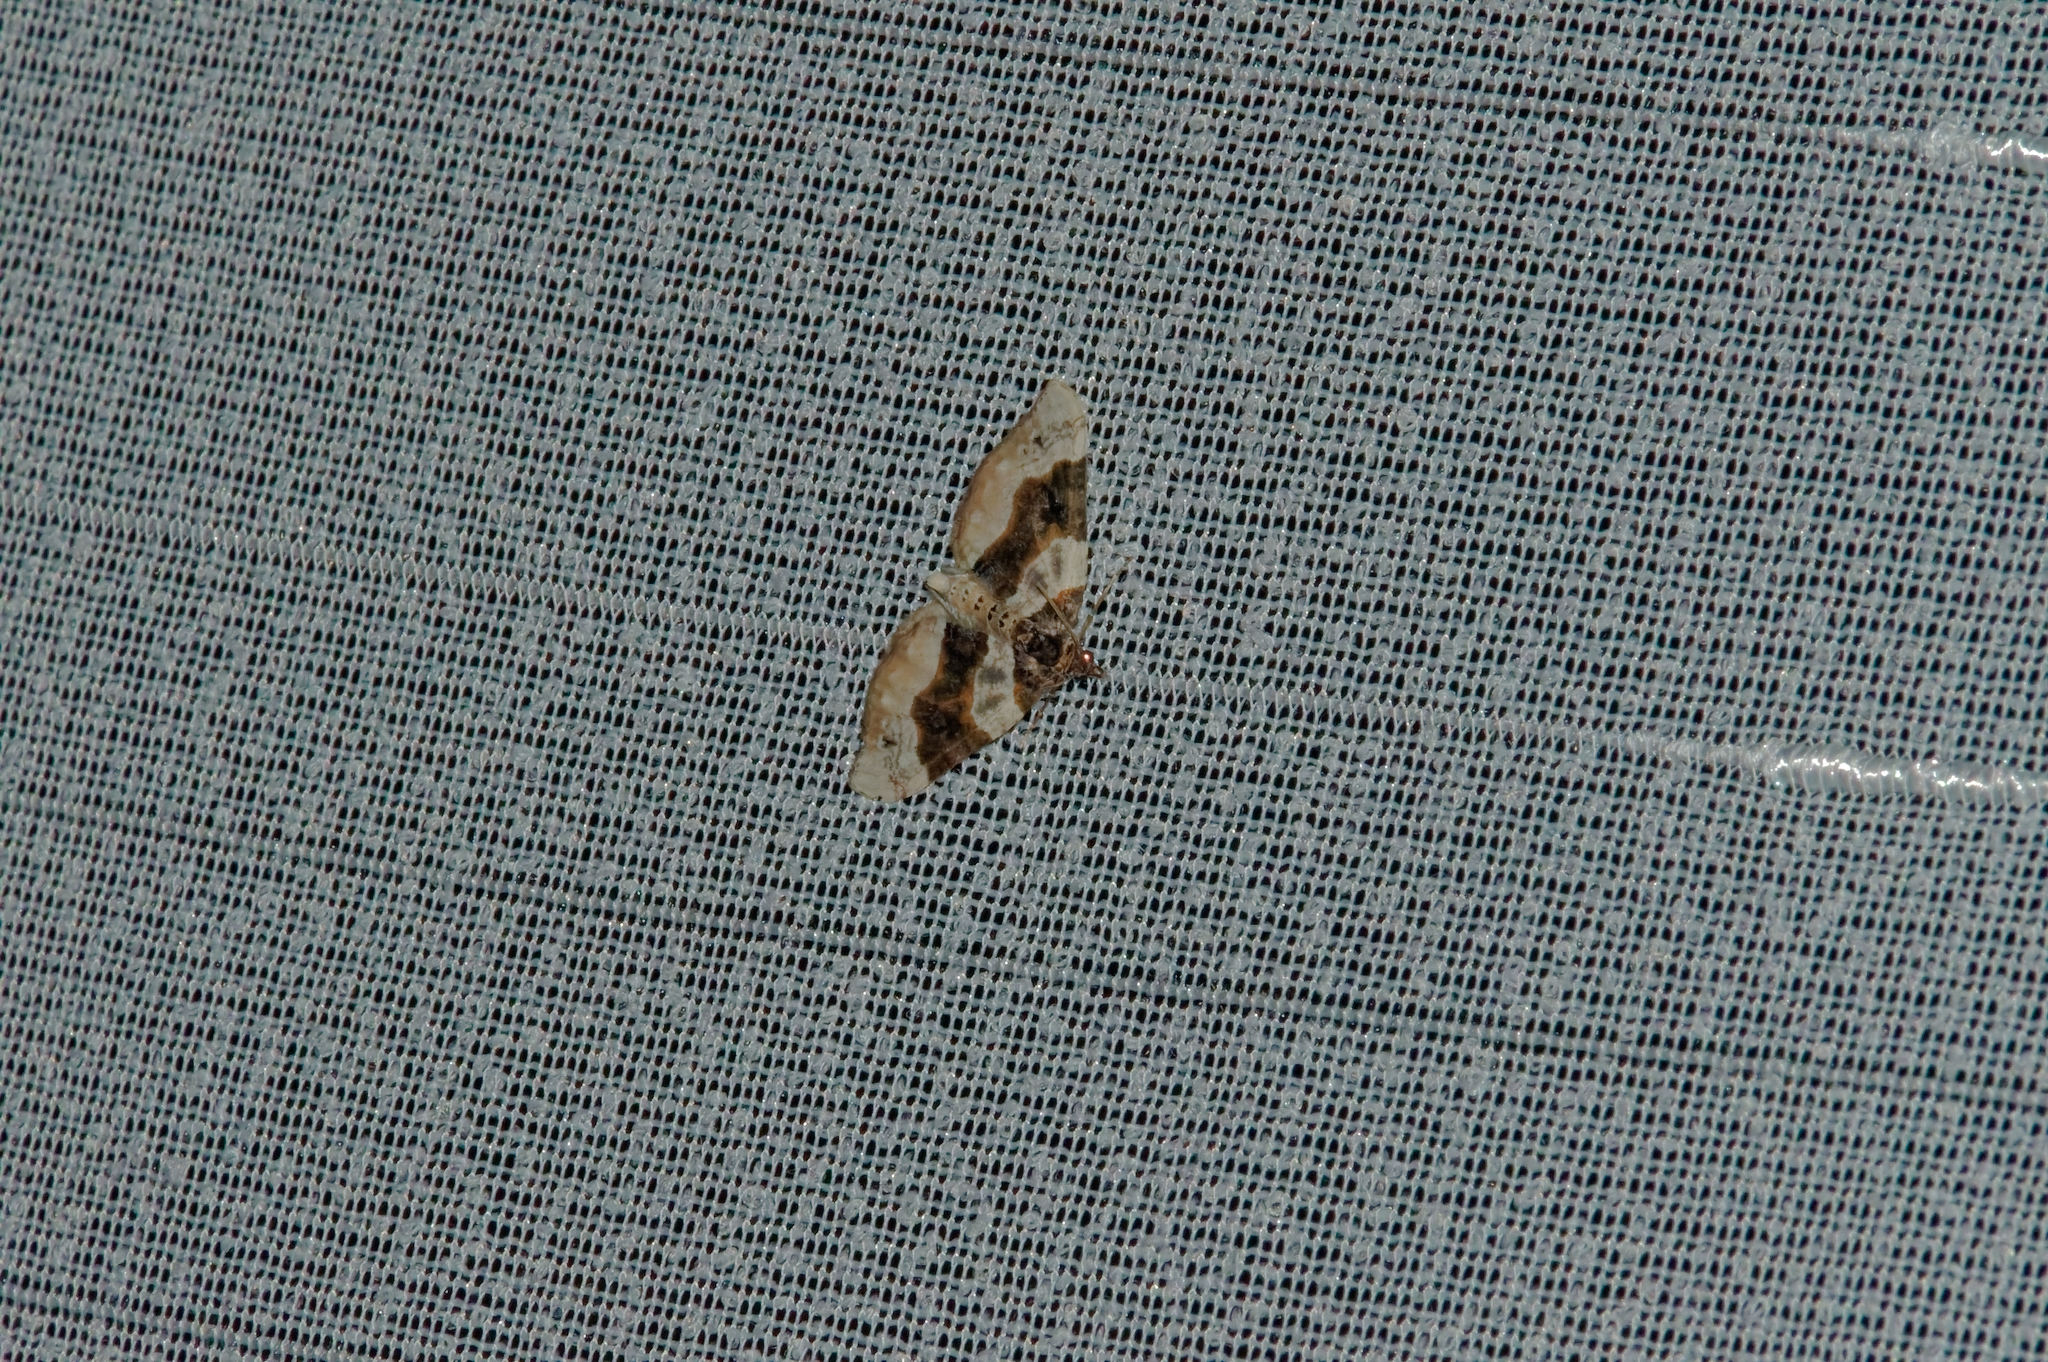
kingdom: Animalia
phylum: Arthropoda
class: Insecta
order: Lepidoptera
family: Geometridae
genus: Cosmorhoe
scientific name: Cosmorhoe ocellata
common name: Purple bar
